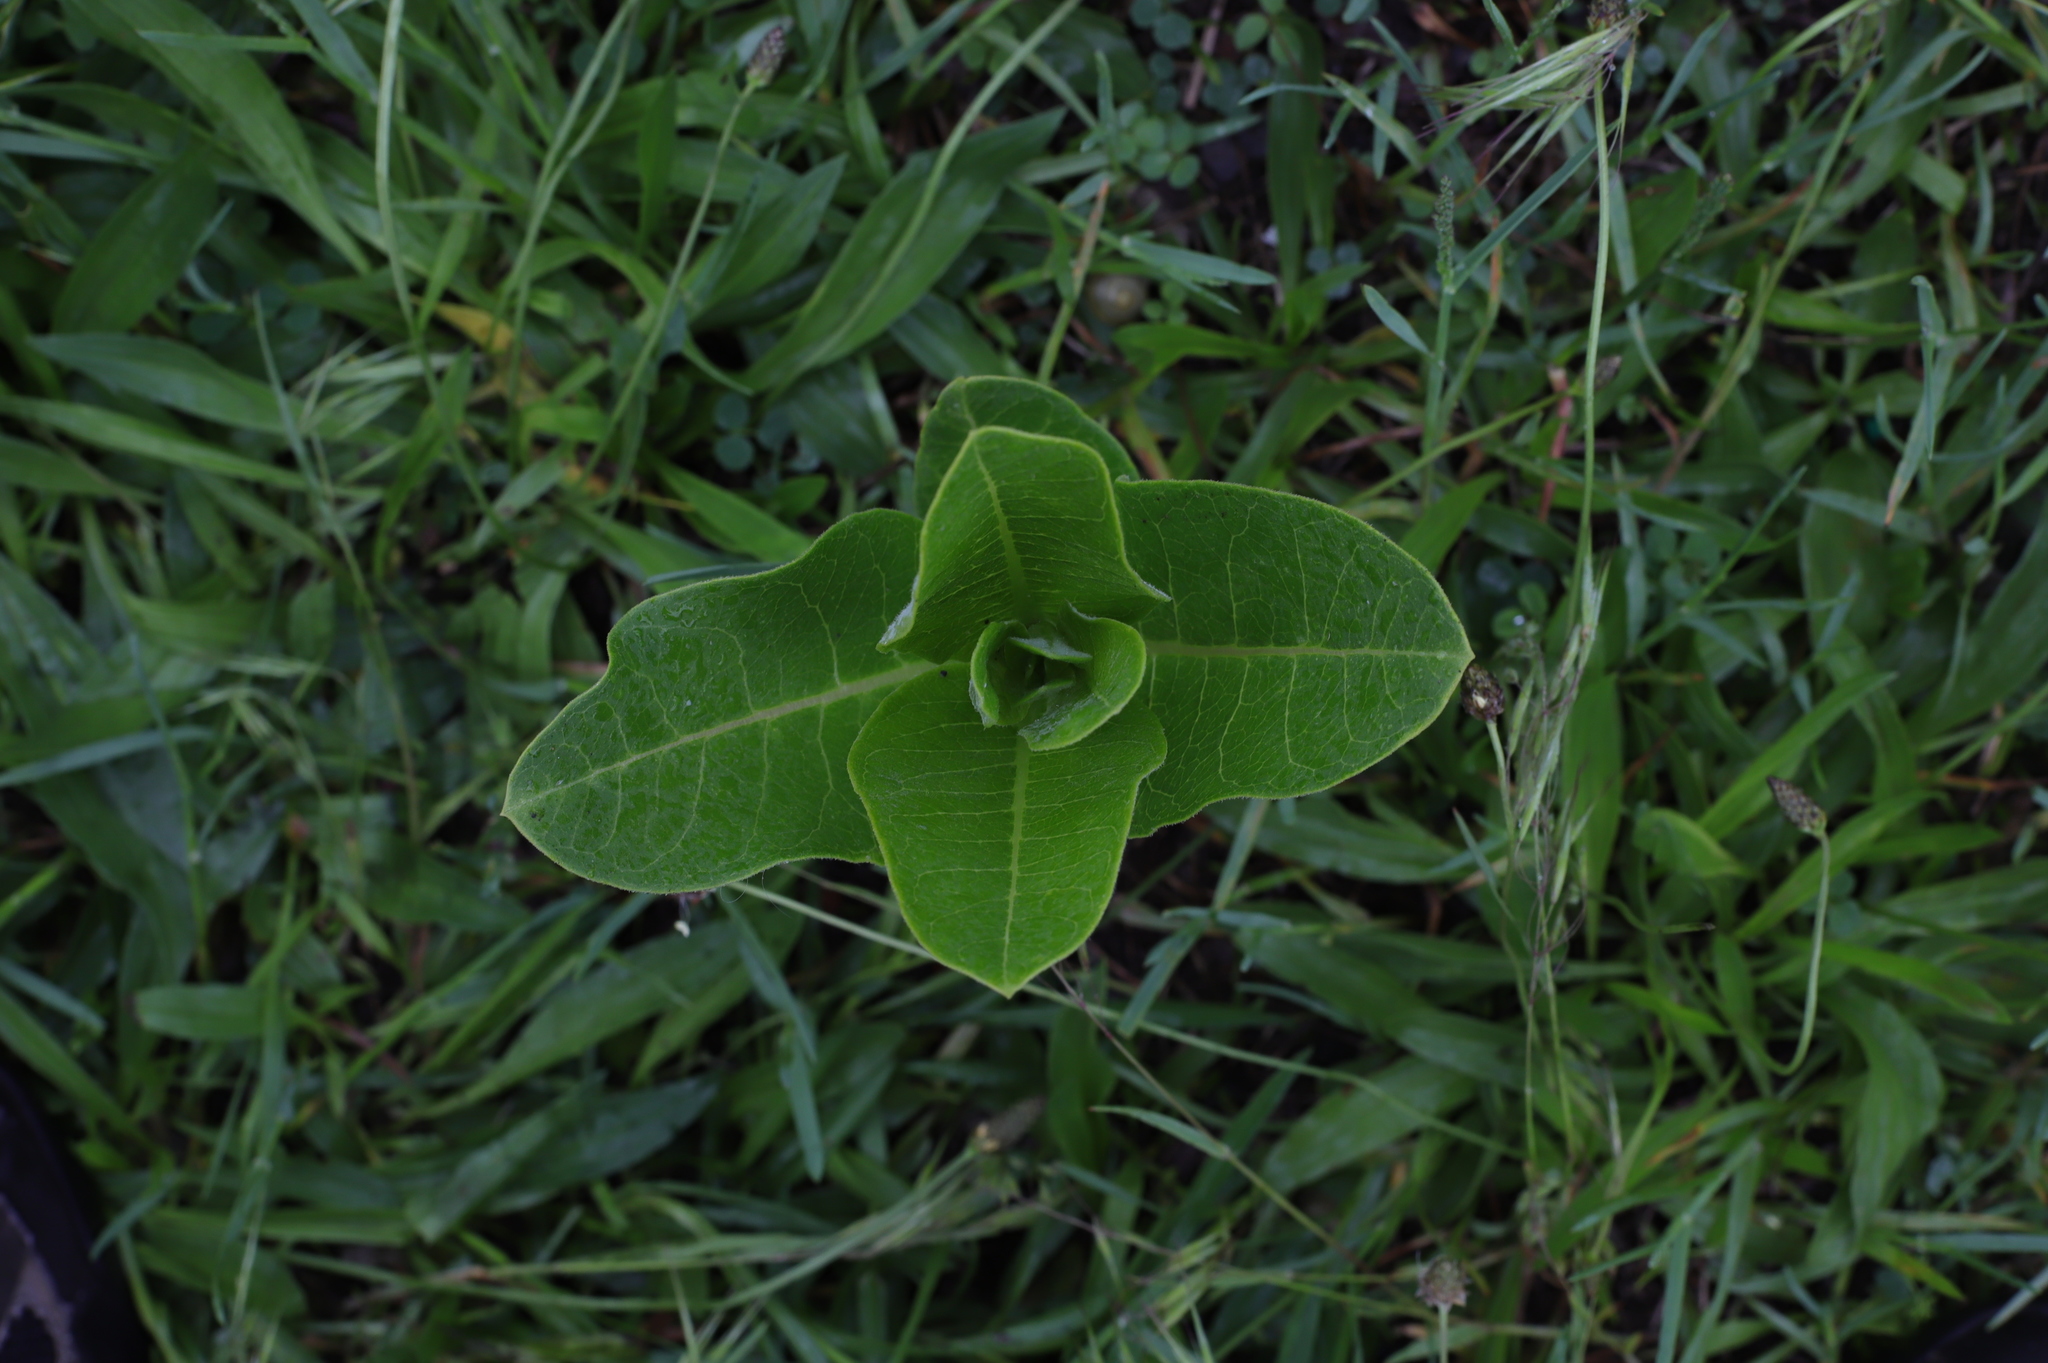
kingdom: Plantae
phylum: Tracheophyta
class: Magnoliopsida
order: Gentianales
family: Apocynaceae
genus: Asclepias
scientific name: Asclepias syriaca
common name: Common milkweed
